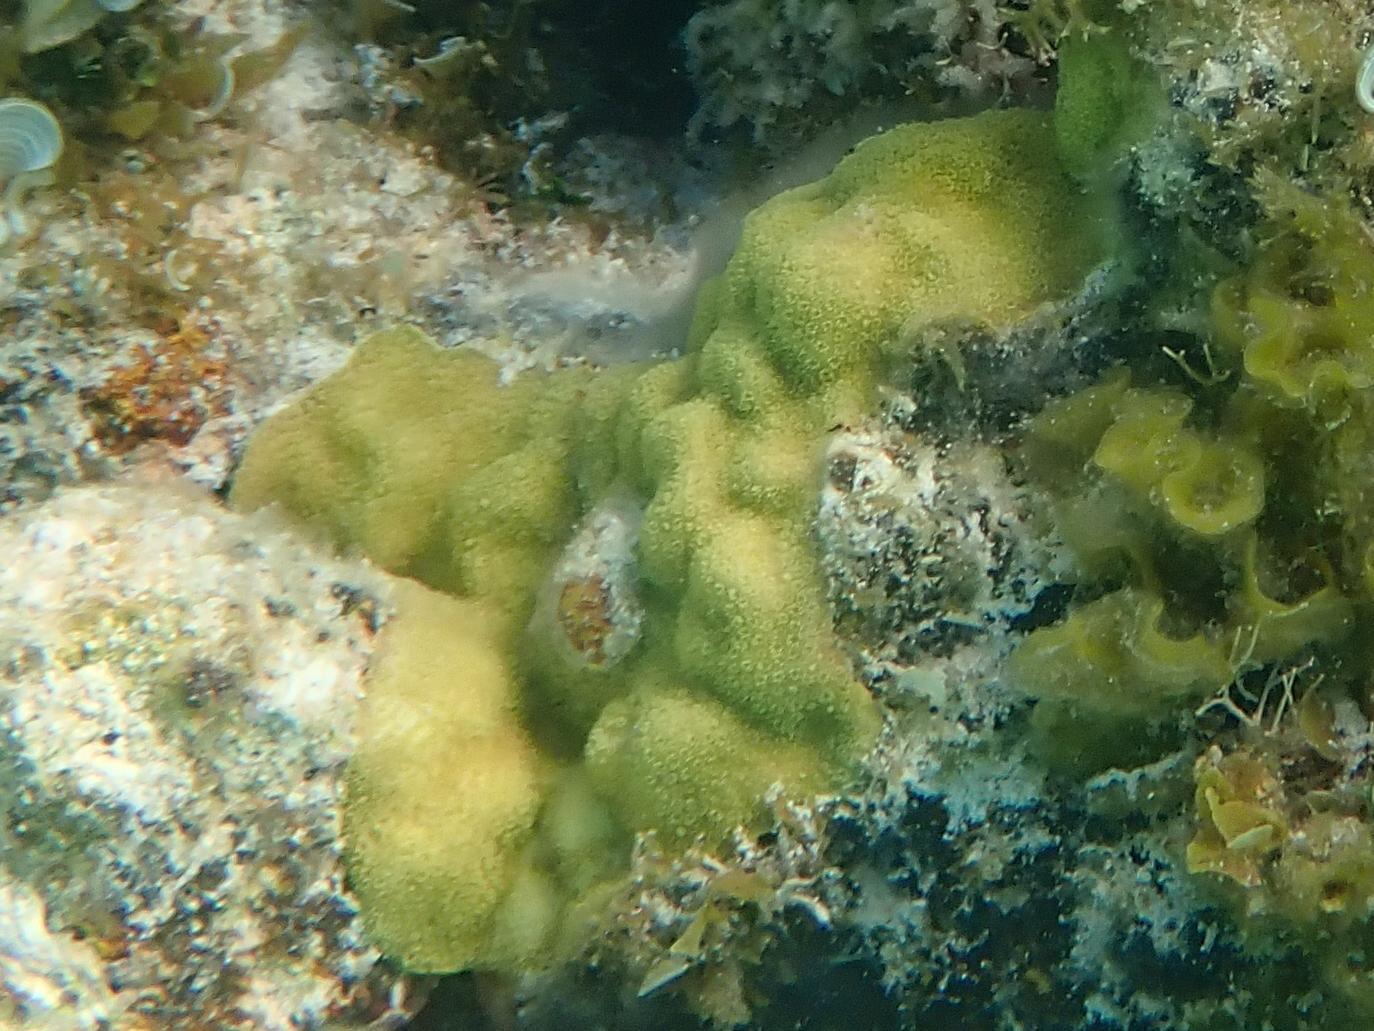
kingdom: Animalia
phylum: Cnidaria
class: Anthozoa
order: Scleractinia
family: Poritidae
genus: Porites
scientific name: Porites astreoides
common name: Mustard hill coral
